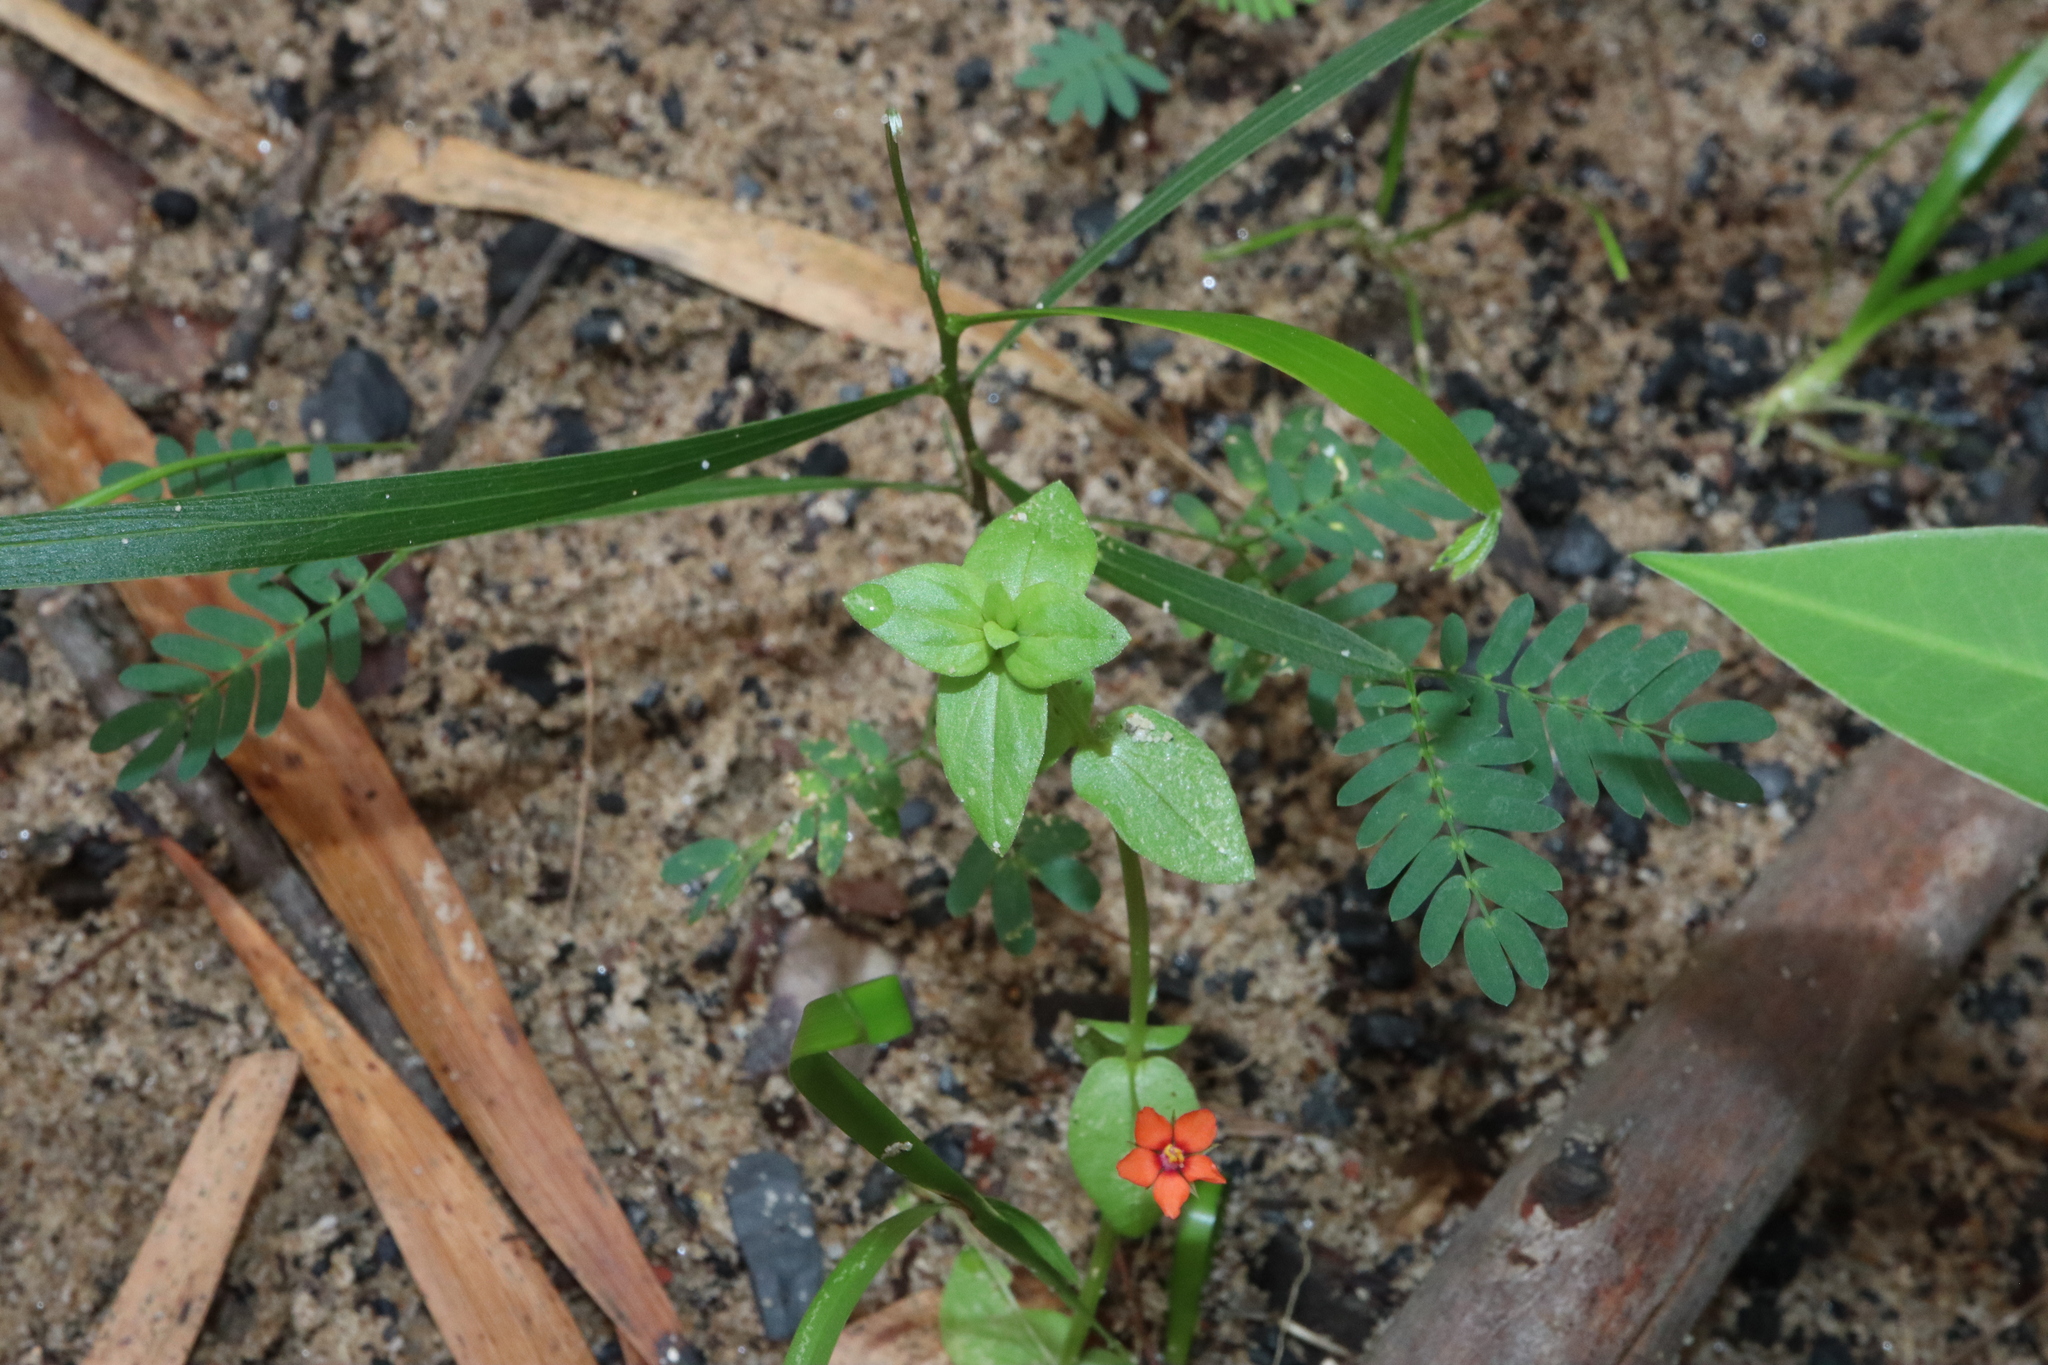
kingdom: Plantae
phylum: Tracheophyta
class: Magnoliopsida
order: Ericales
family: Primulaceae
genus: Lysimachia
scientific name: Lysimachia arvensis
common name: Scarlet pimpernel
